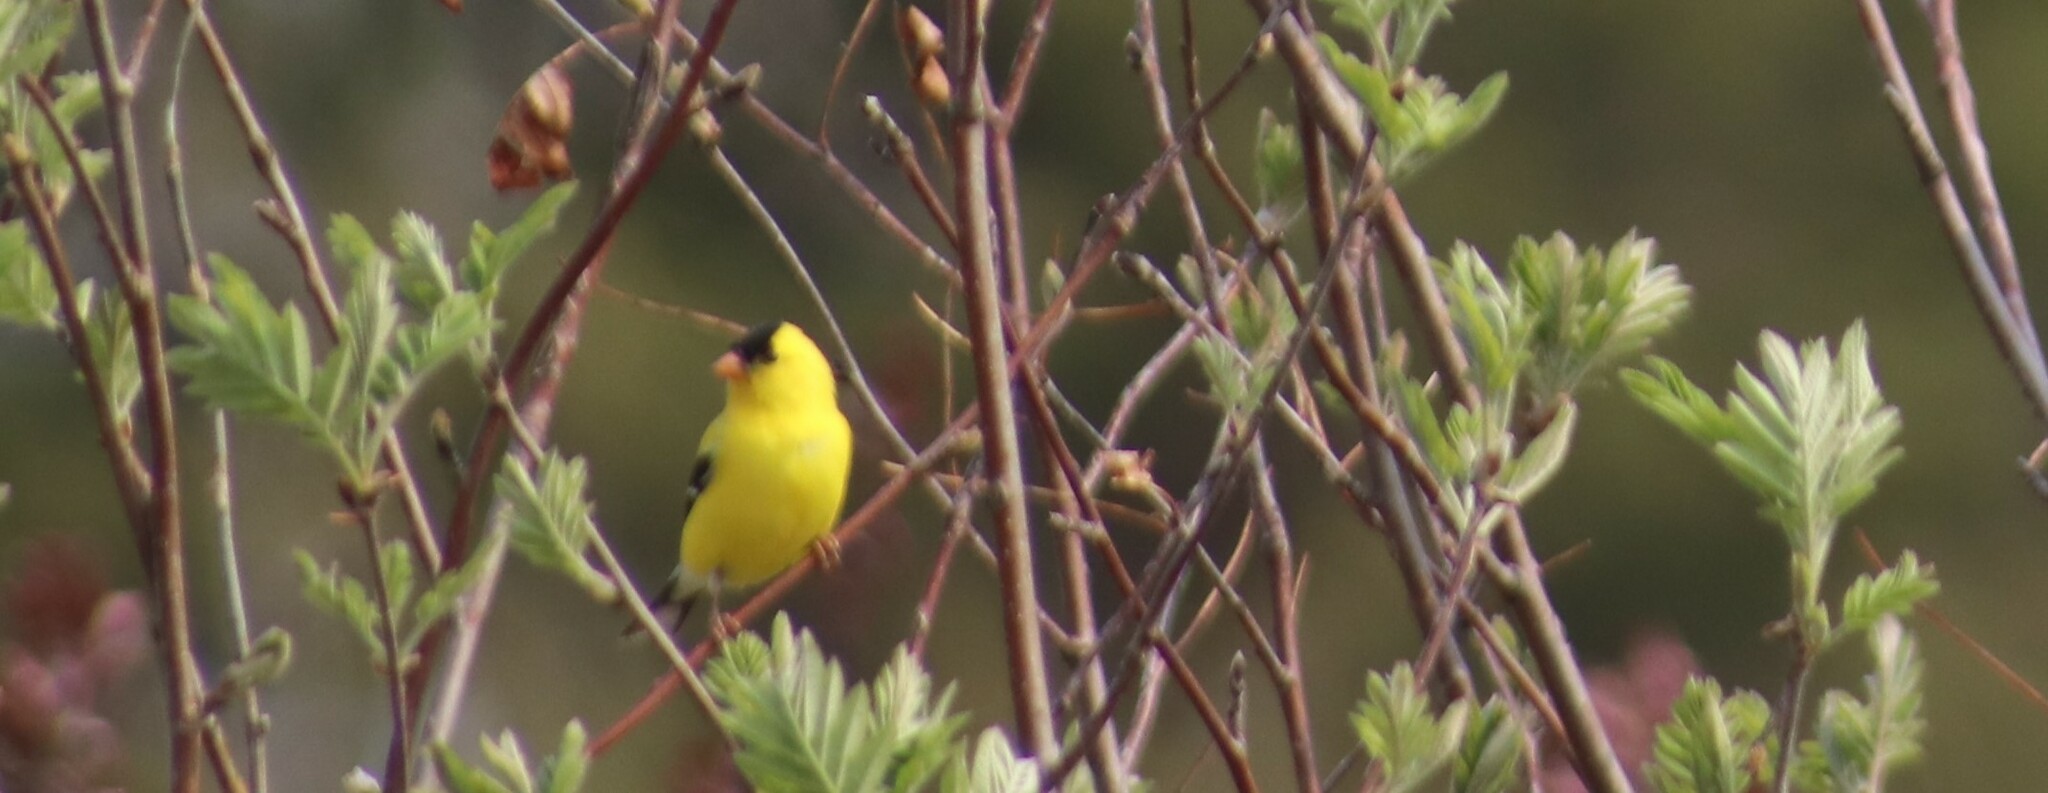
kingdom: Animalia
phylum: Chordata
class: Aves
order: Passeriformes
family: Fringillidae
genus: Spinus
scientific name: Spinus tristis
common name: American goldfinch
